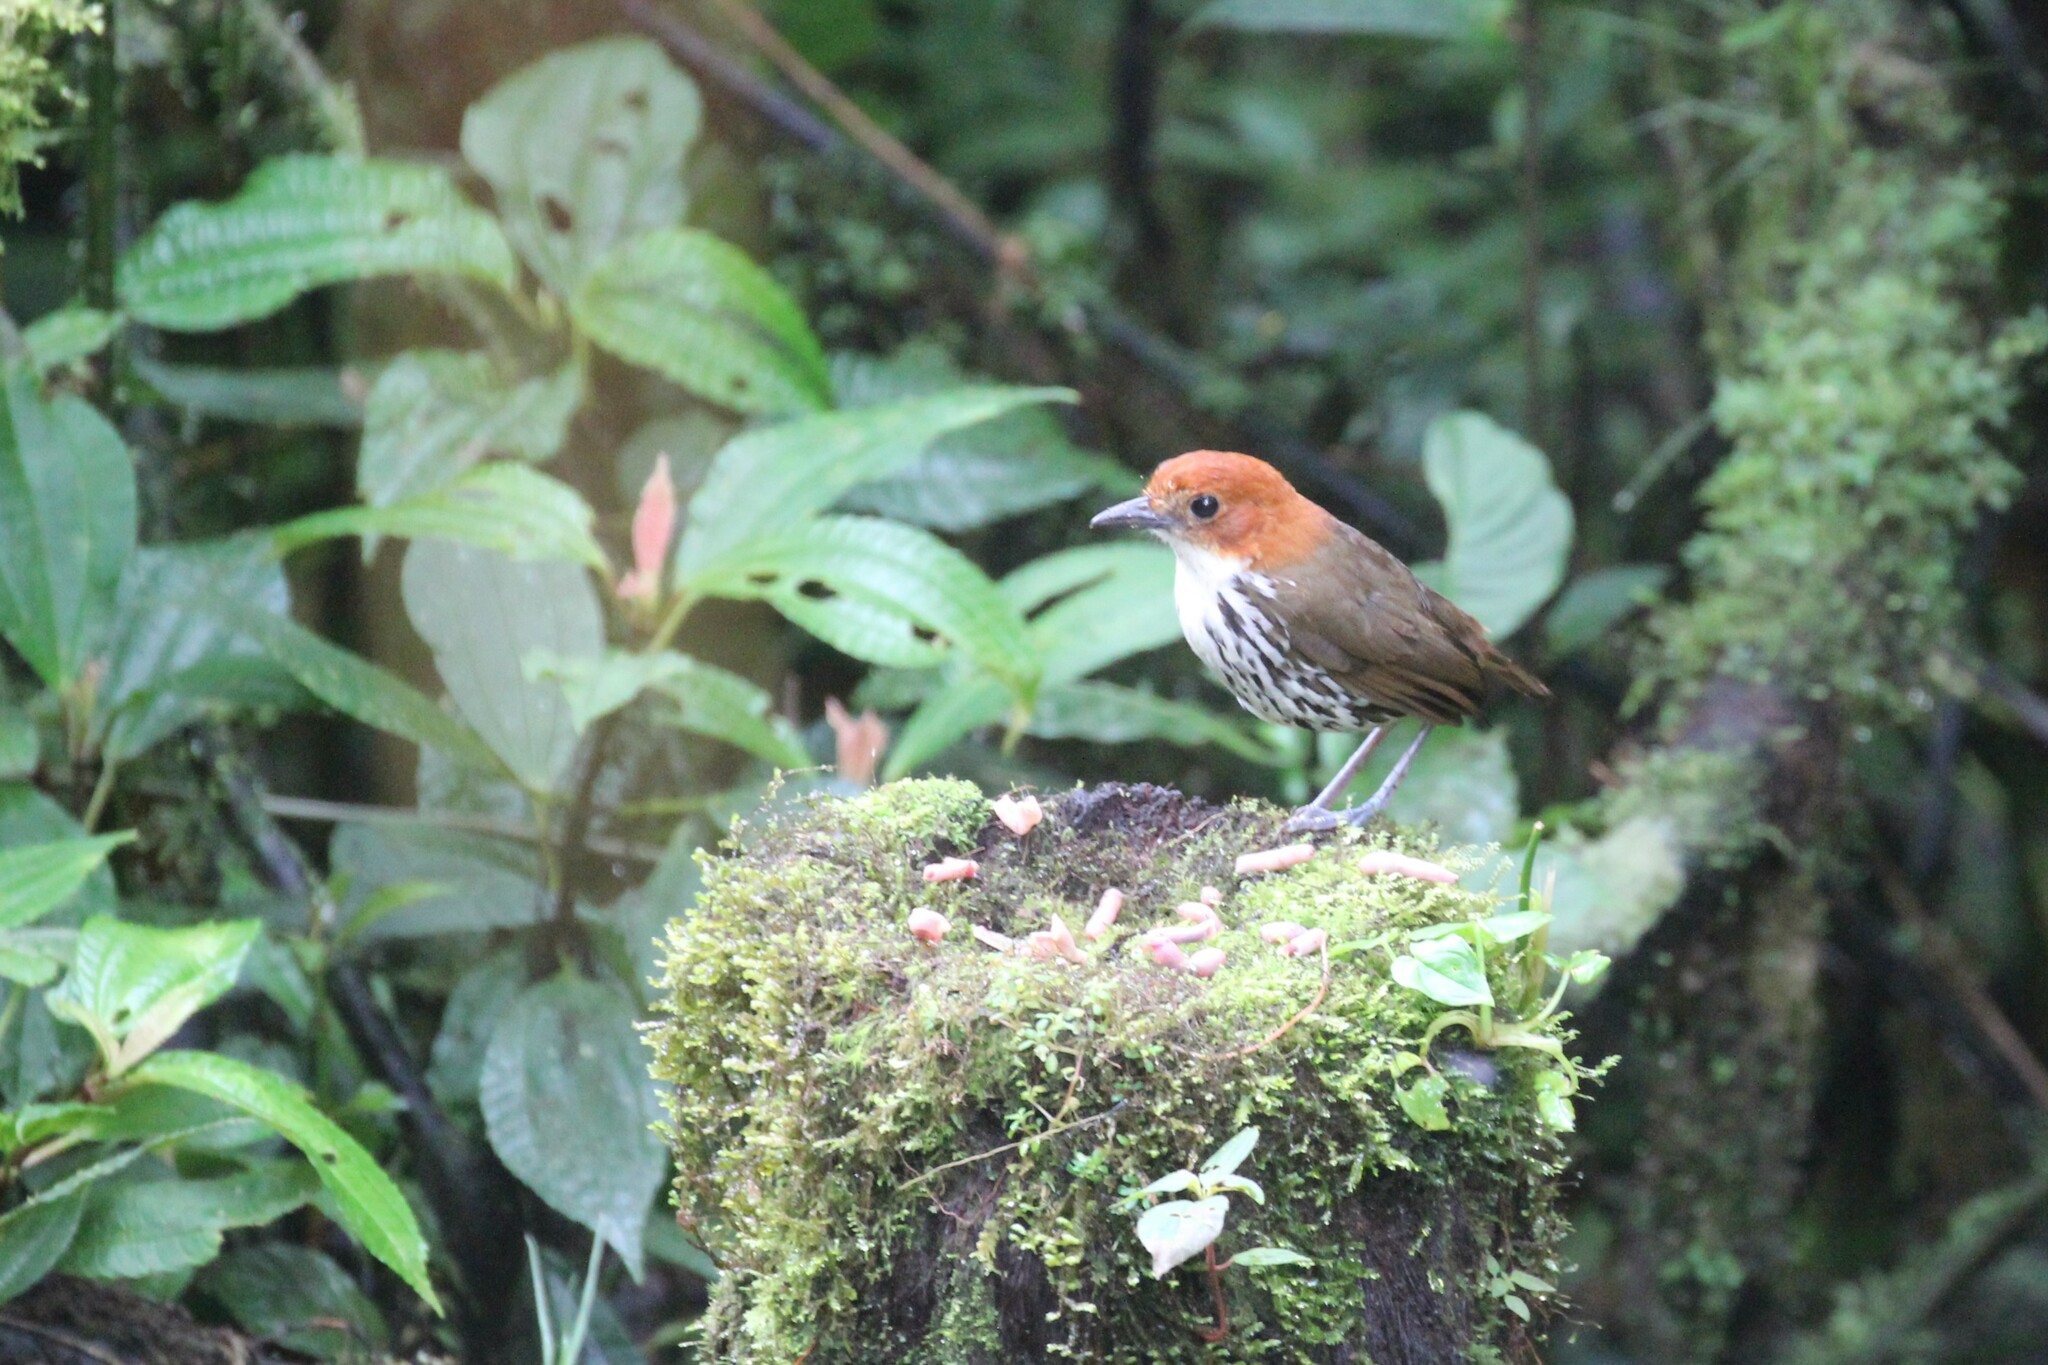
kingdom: Animalia
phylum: Chordata
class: Aves
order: Passeriformes
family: Grallariidae
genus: Grallaria
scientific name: Grallaria ruficapilla
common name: Chestnut-crowned antpitta
